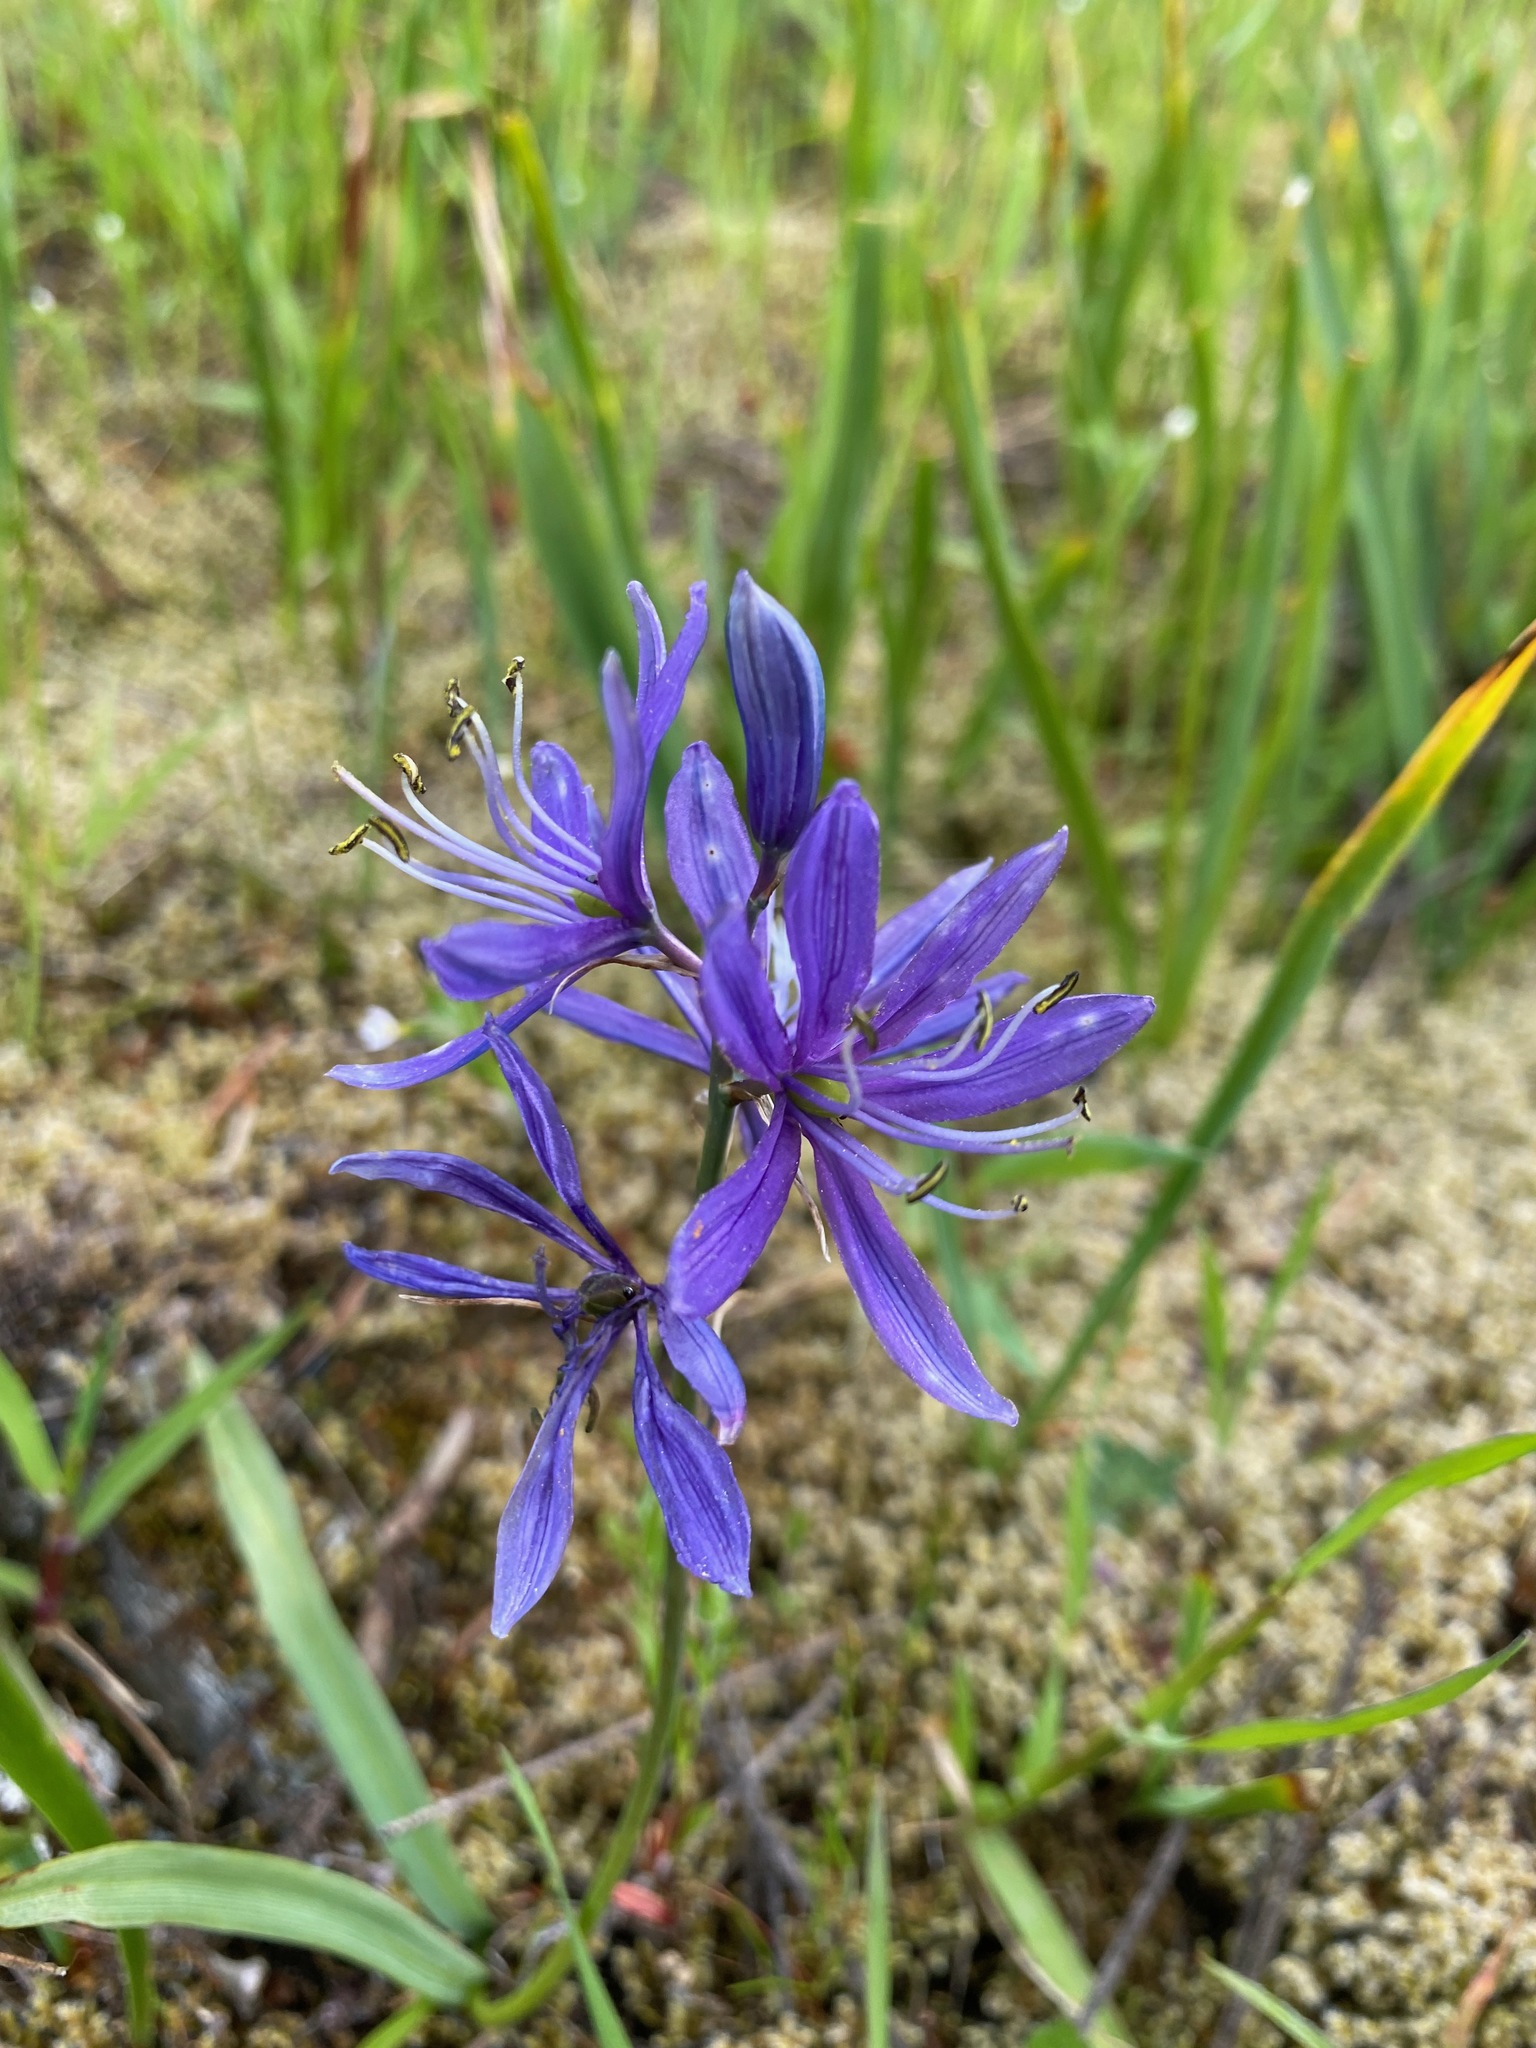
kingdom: Plantae
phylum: Tracheophyta
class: Liliopsida
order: Asparagales
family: Asparagaceae
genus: Camassia
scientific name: Camassia quamash
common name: Common camas
